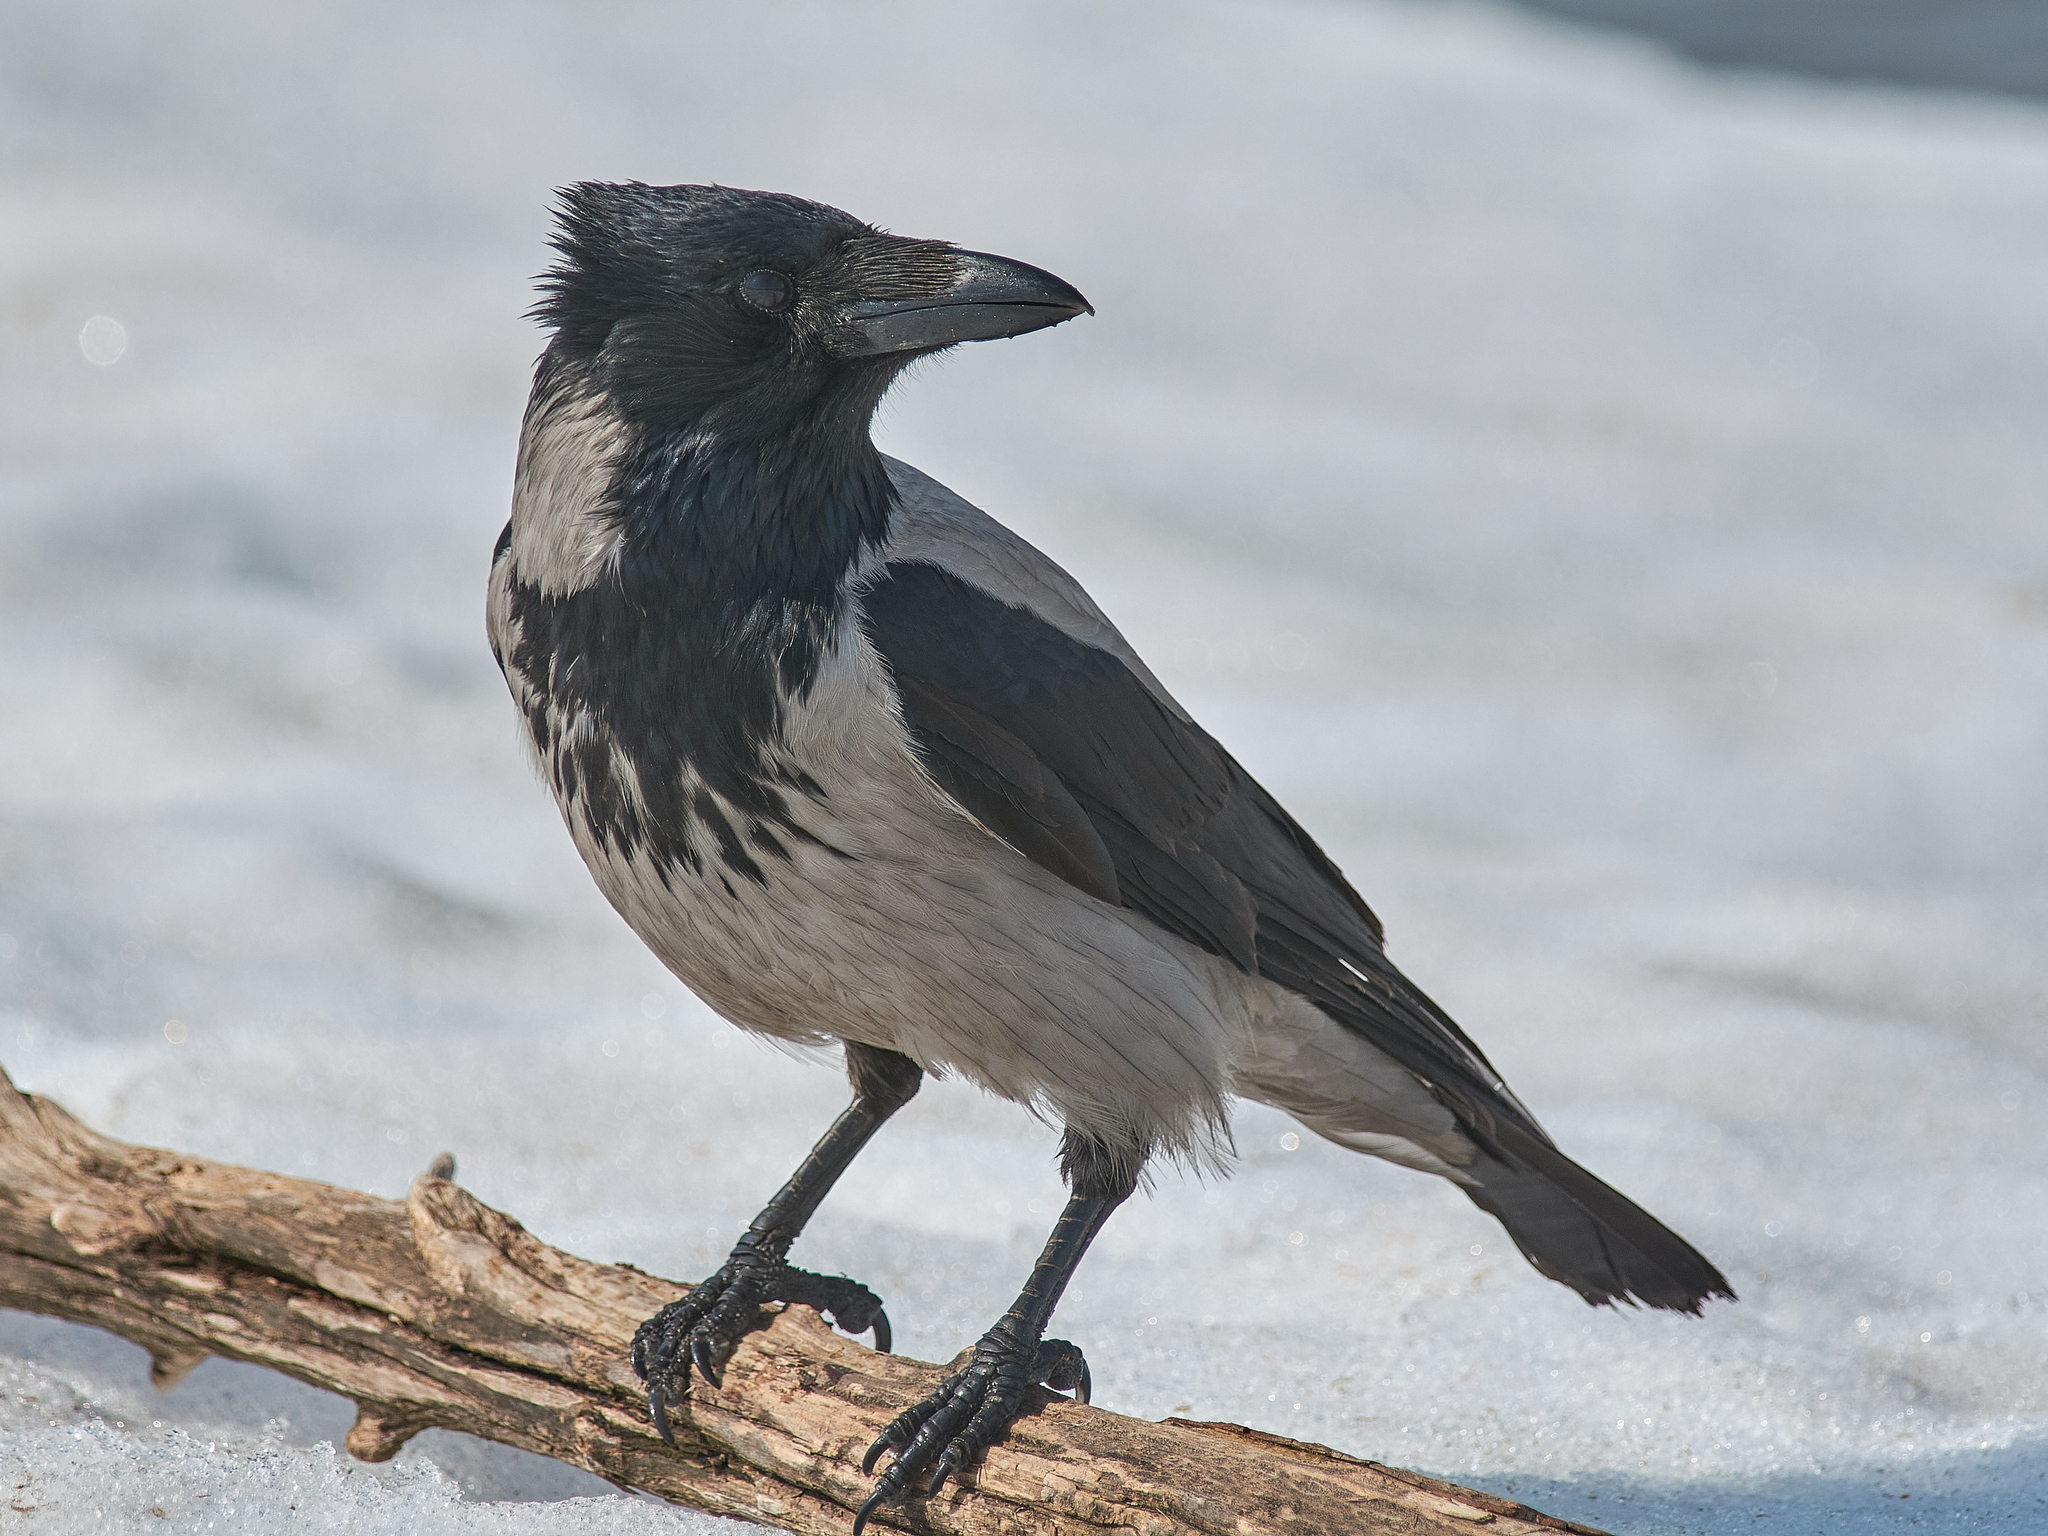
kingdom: Animalia
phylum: Chordata
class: Aves
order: Passeriformes
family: Corvidae
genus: Corvus
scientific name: Corvus cornix
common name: Hooded crow
